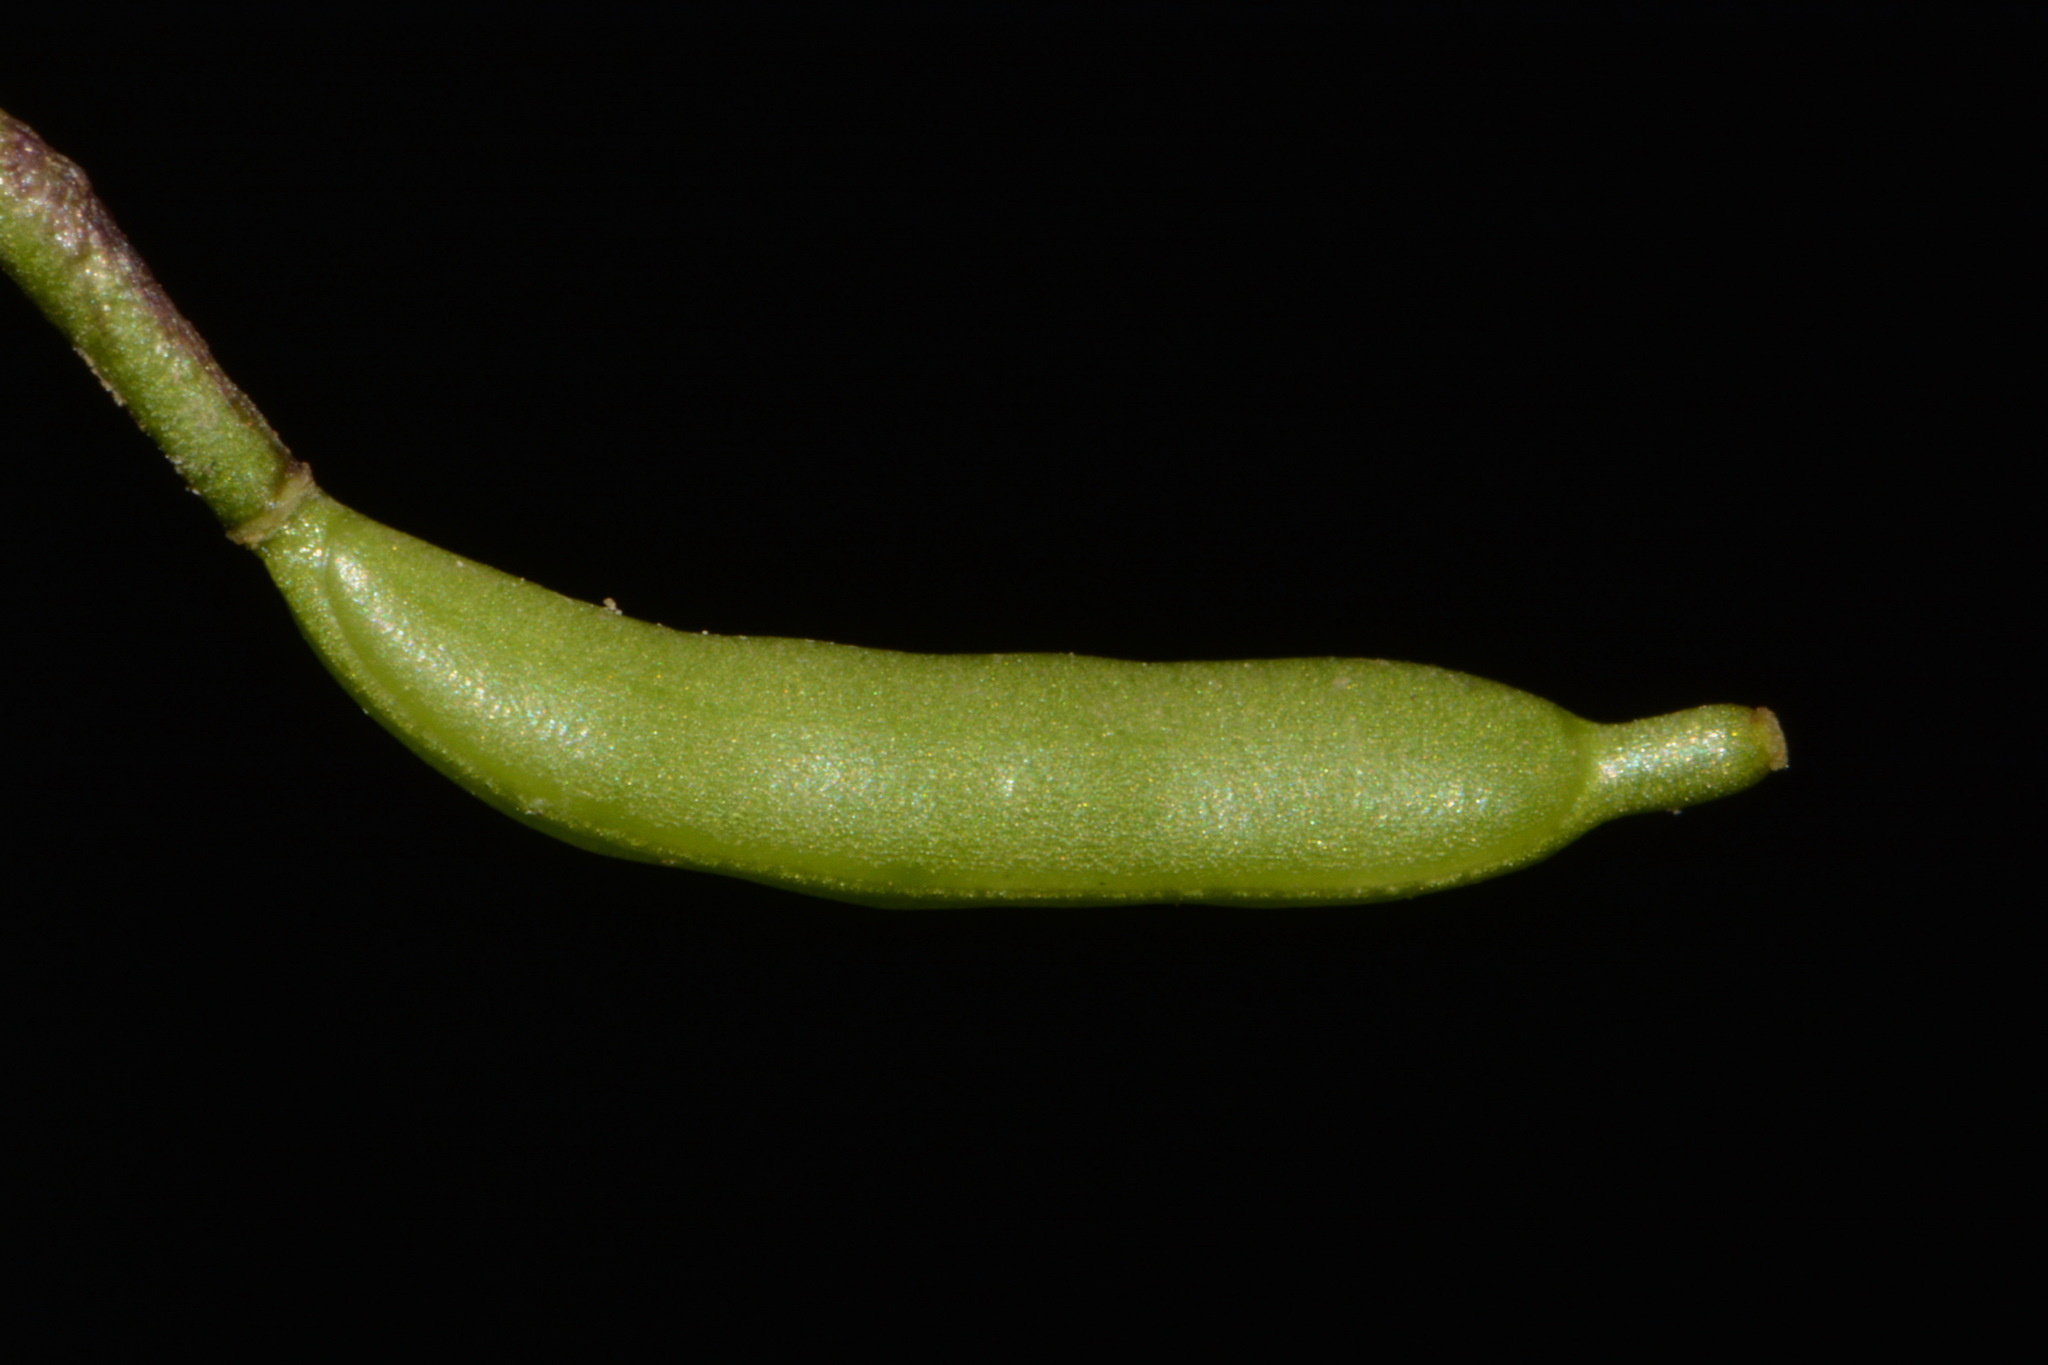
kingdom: Plantae
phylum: Tracheophyta
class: Magnoliopsida
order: Brassicales
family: Brassicaceae
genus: Leavenworthia
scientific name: Leavenworthia uniflora
